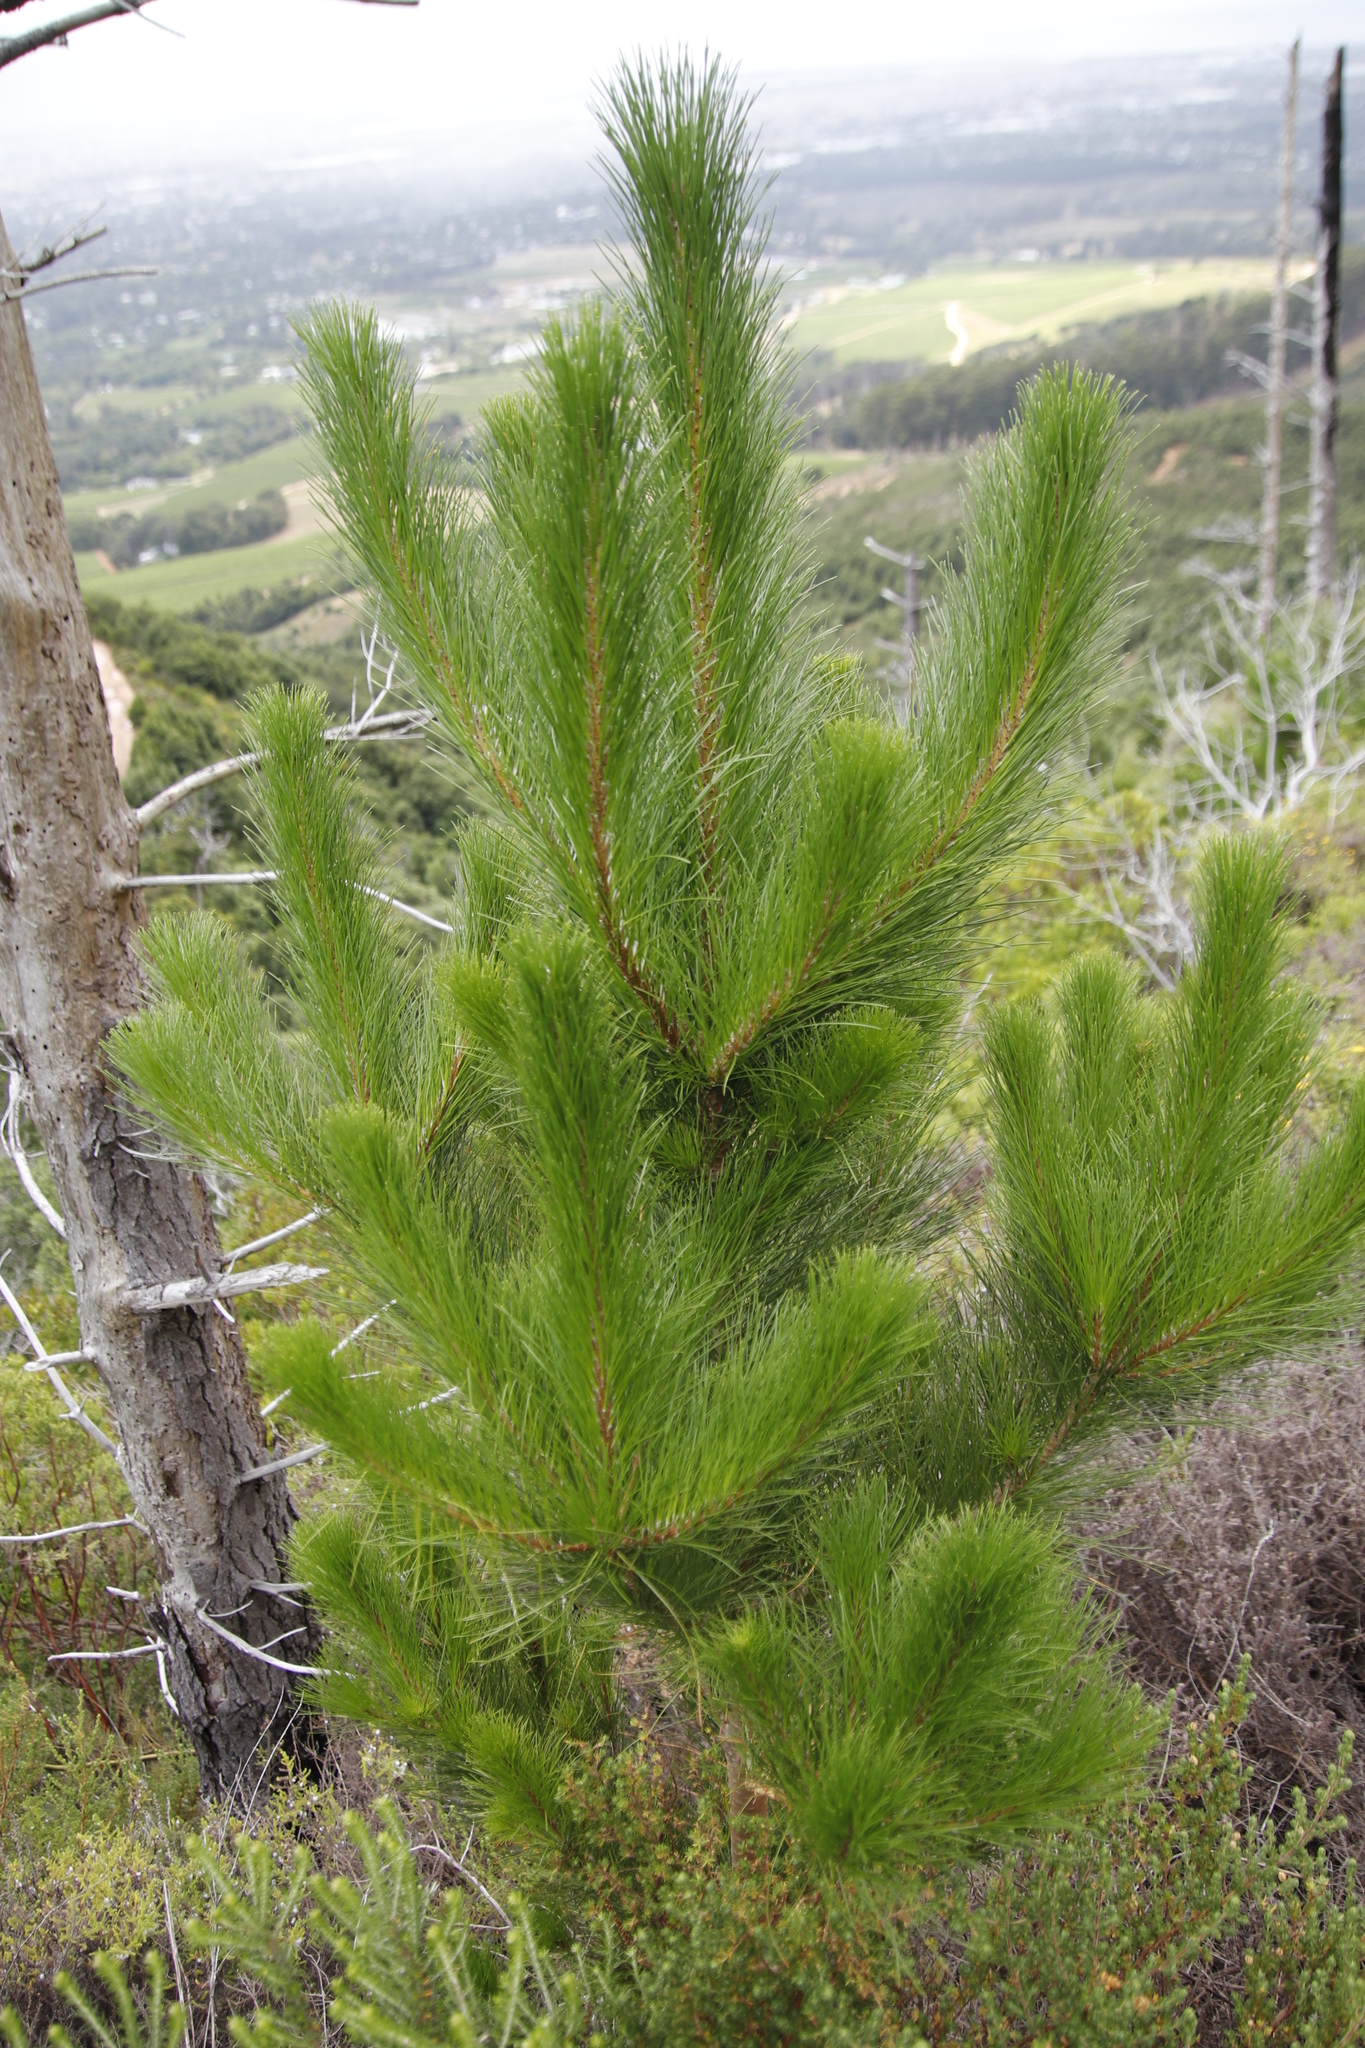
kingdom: Plantae
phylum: Tracheophyta
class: Pinopsida
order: Pinales
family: Pinaceae
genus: Pinus
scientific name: Pinus radiata
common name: Monterey pine
